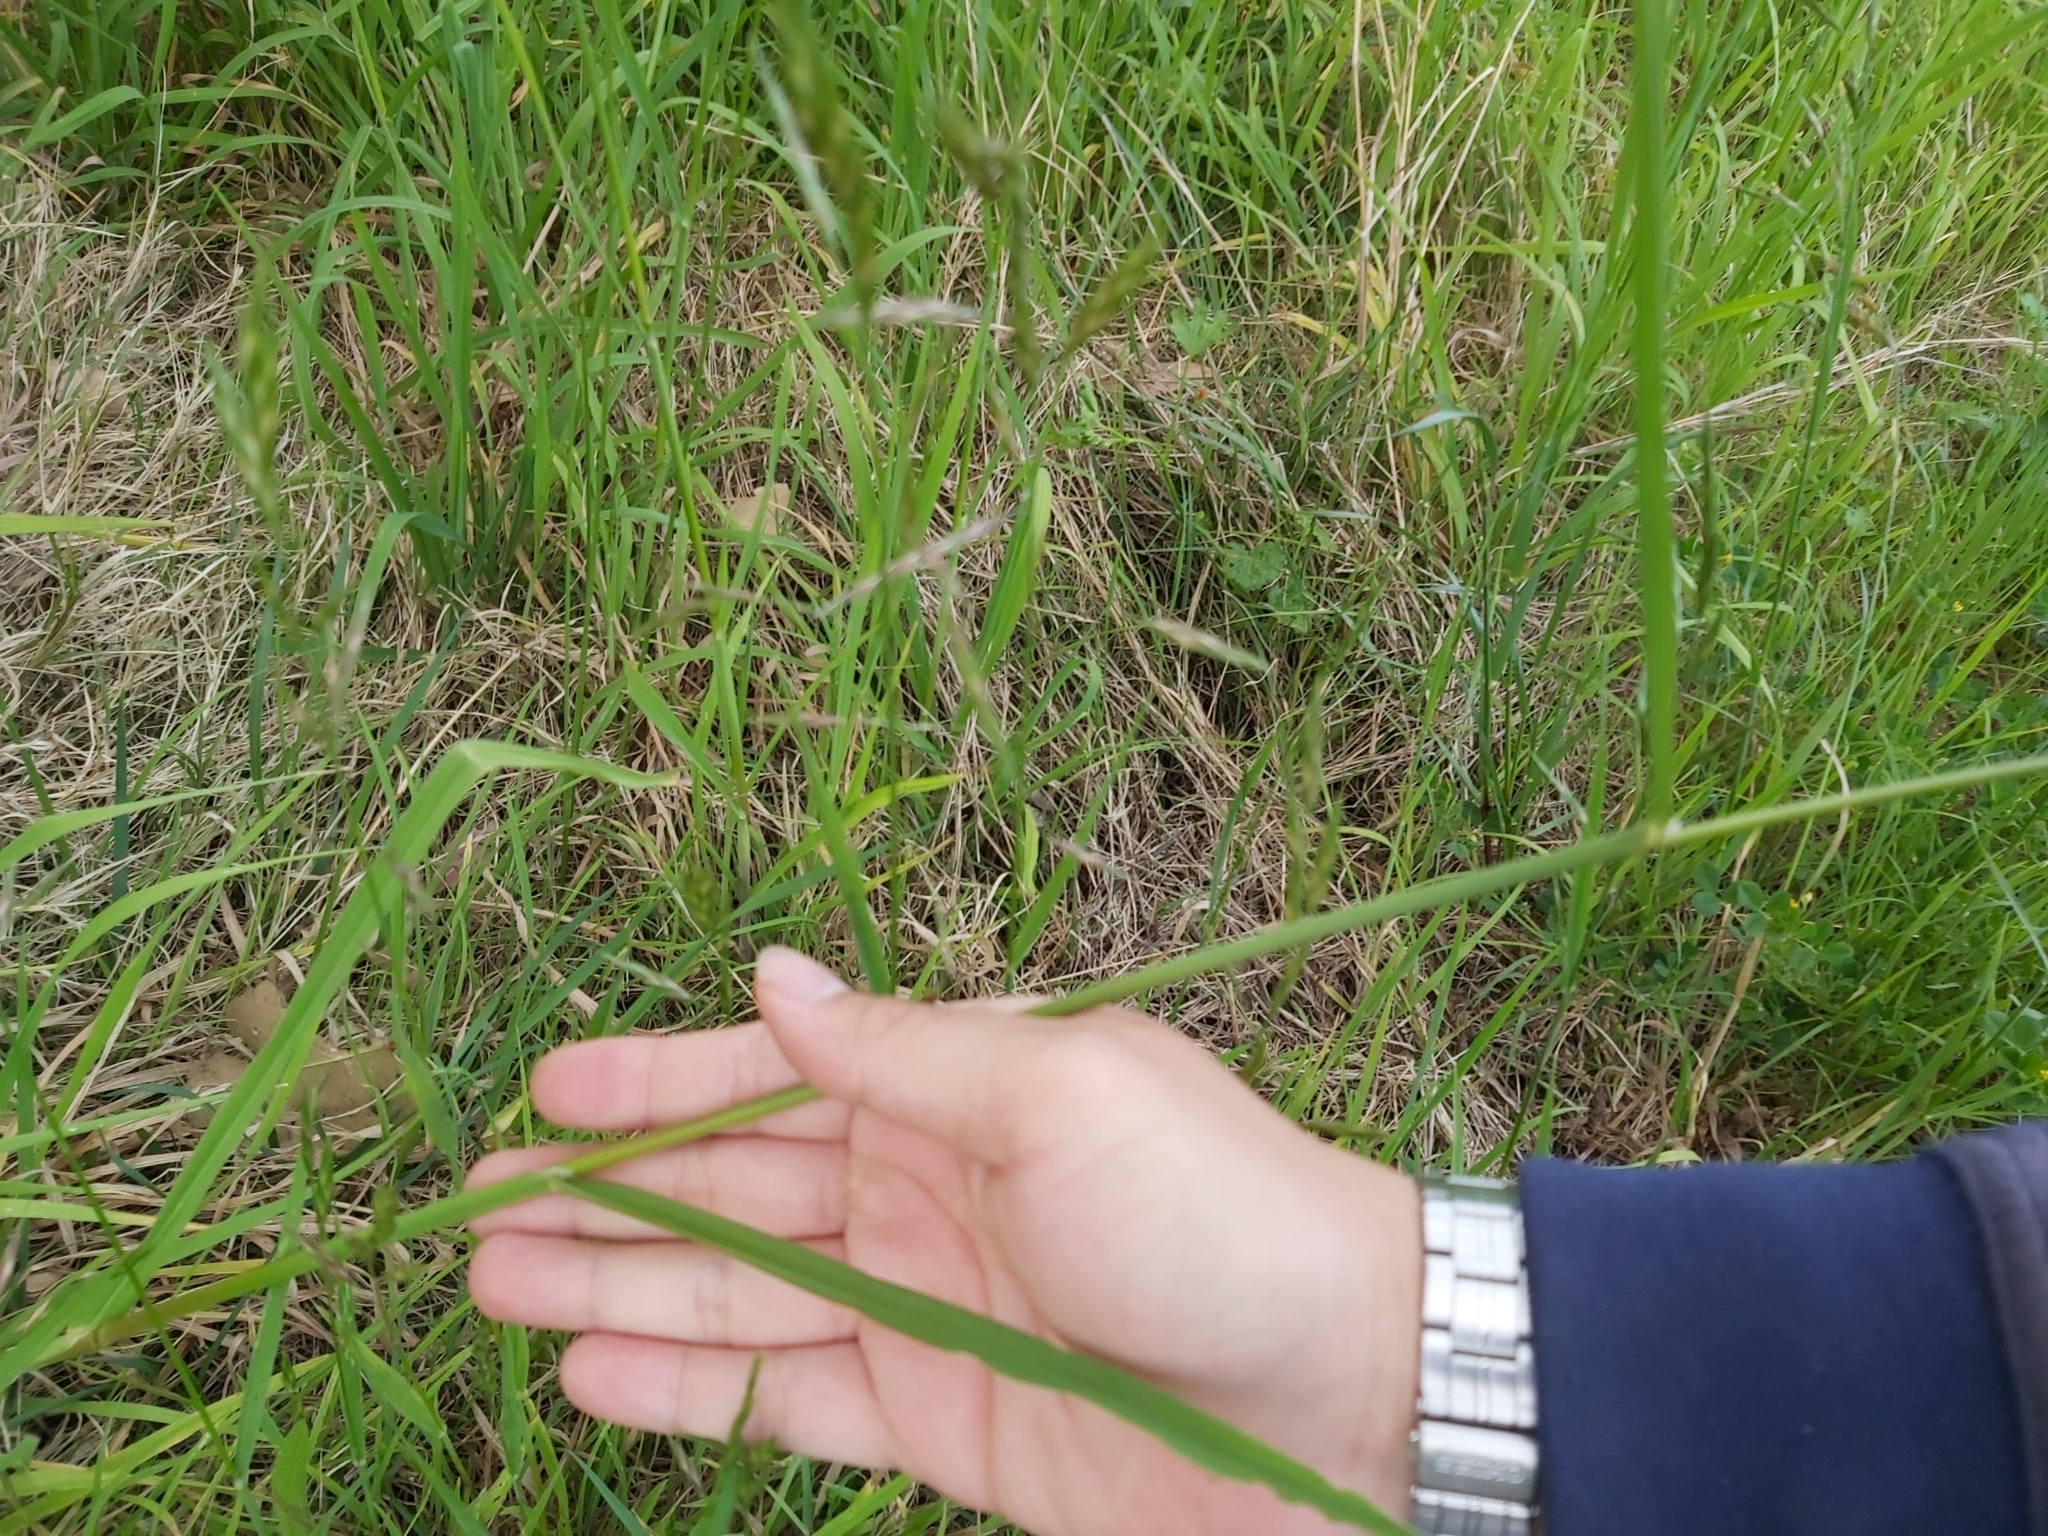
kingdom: Plantae
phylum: Tracheophyta
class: Liliopsida
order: Poales
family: Poaceae
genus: Bromus
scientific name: Bromus catharticus
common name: Rescuegrass
